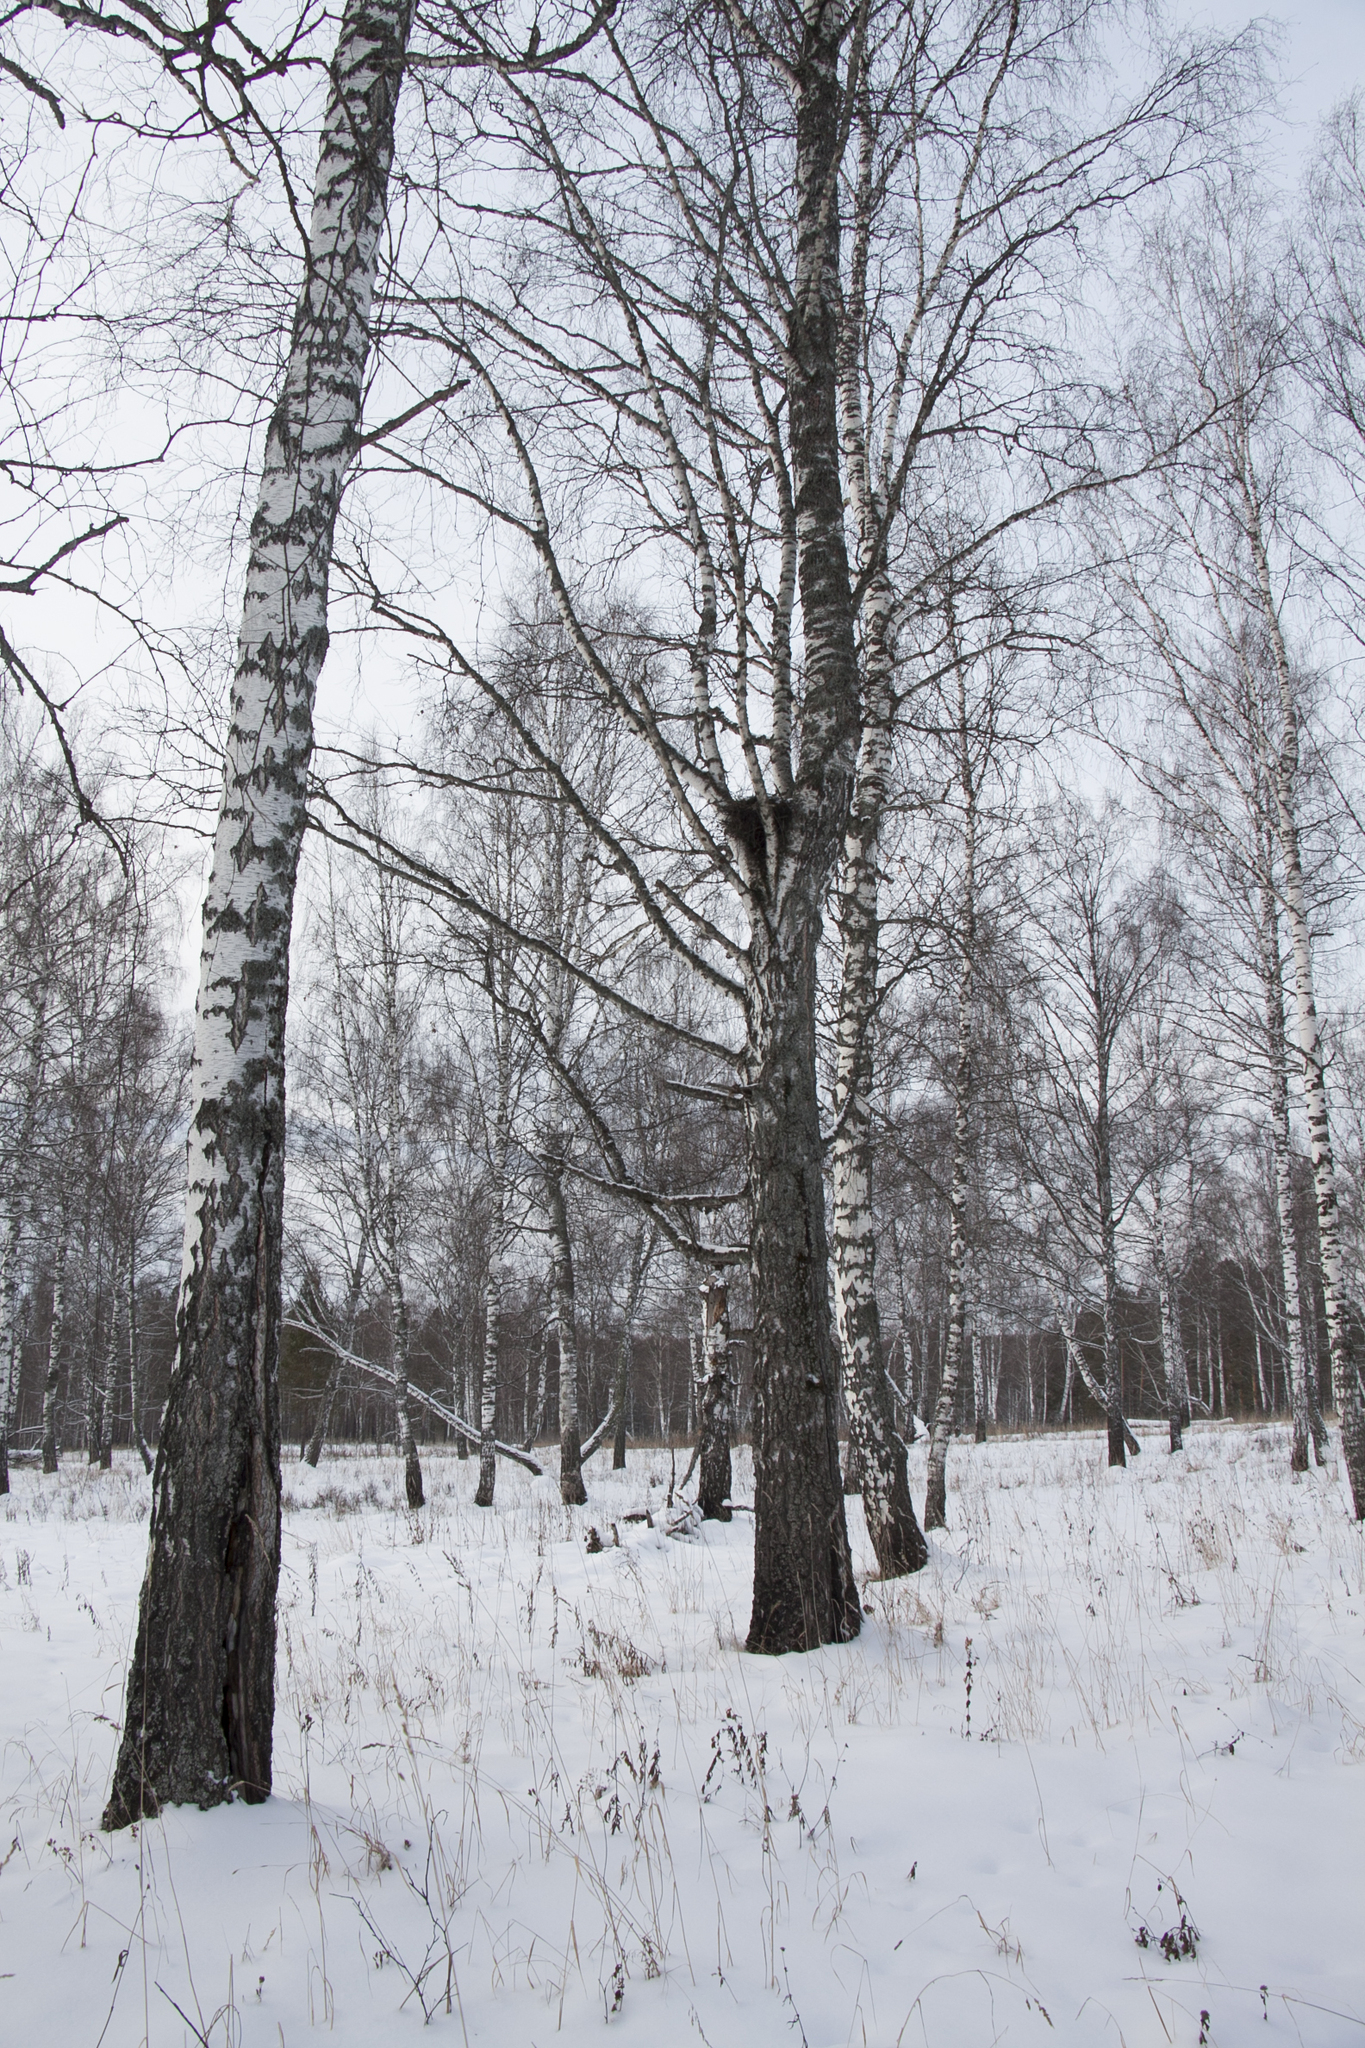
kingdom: Plantae
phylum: Tracheophyta
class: Magnoliopsida
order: Fagales
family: Betulaceae
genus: Betula
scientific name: Betula pendula
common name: Silver birch
